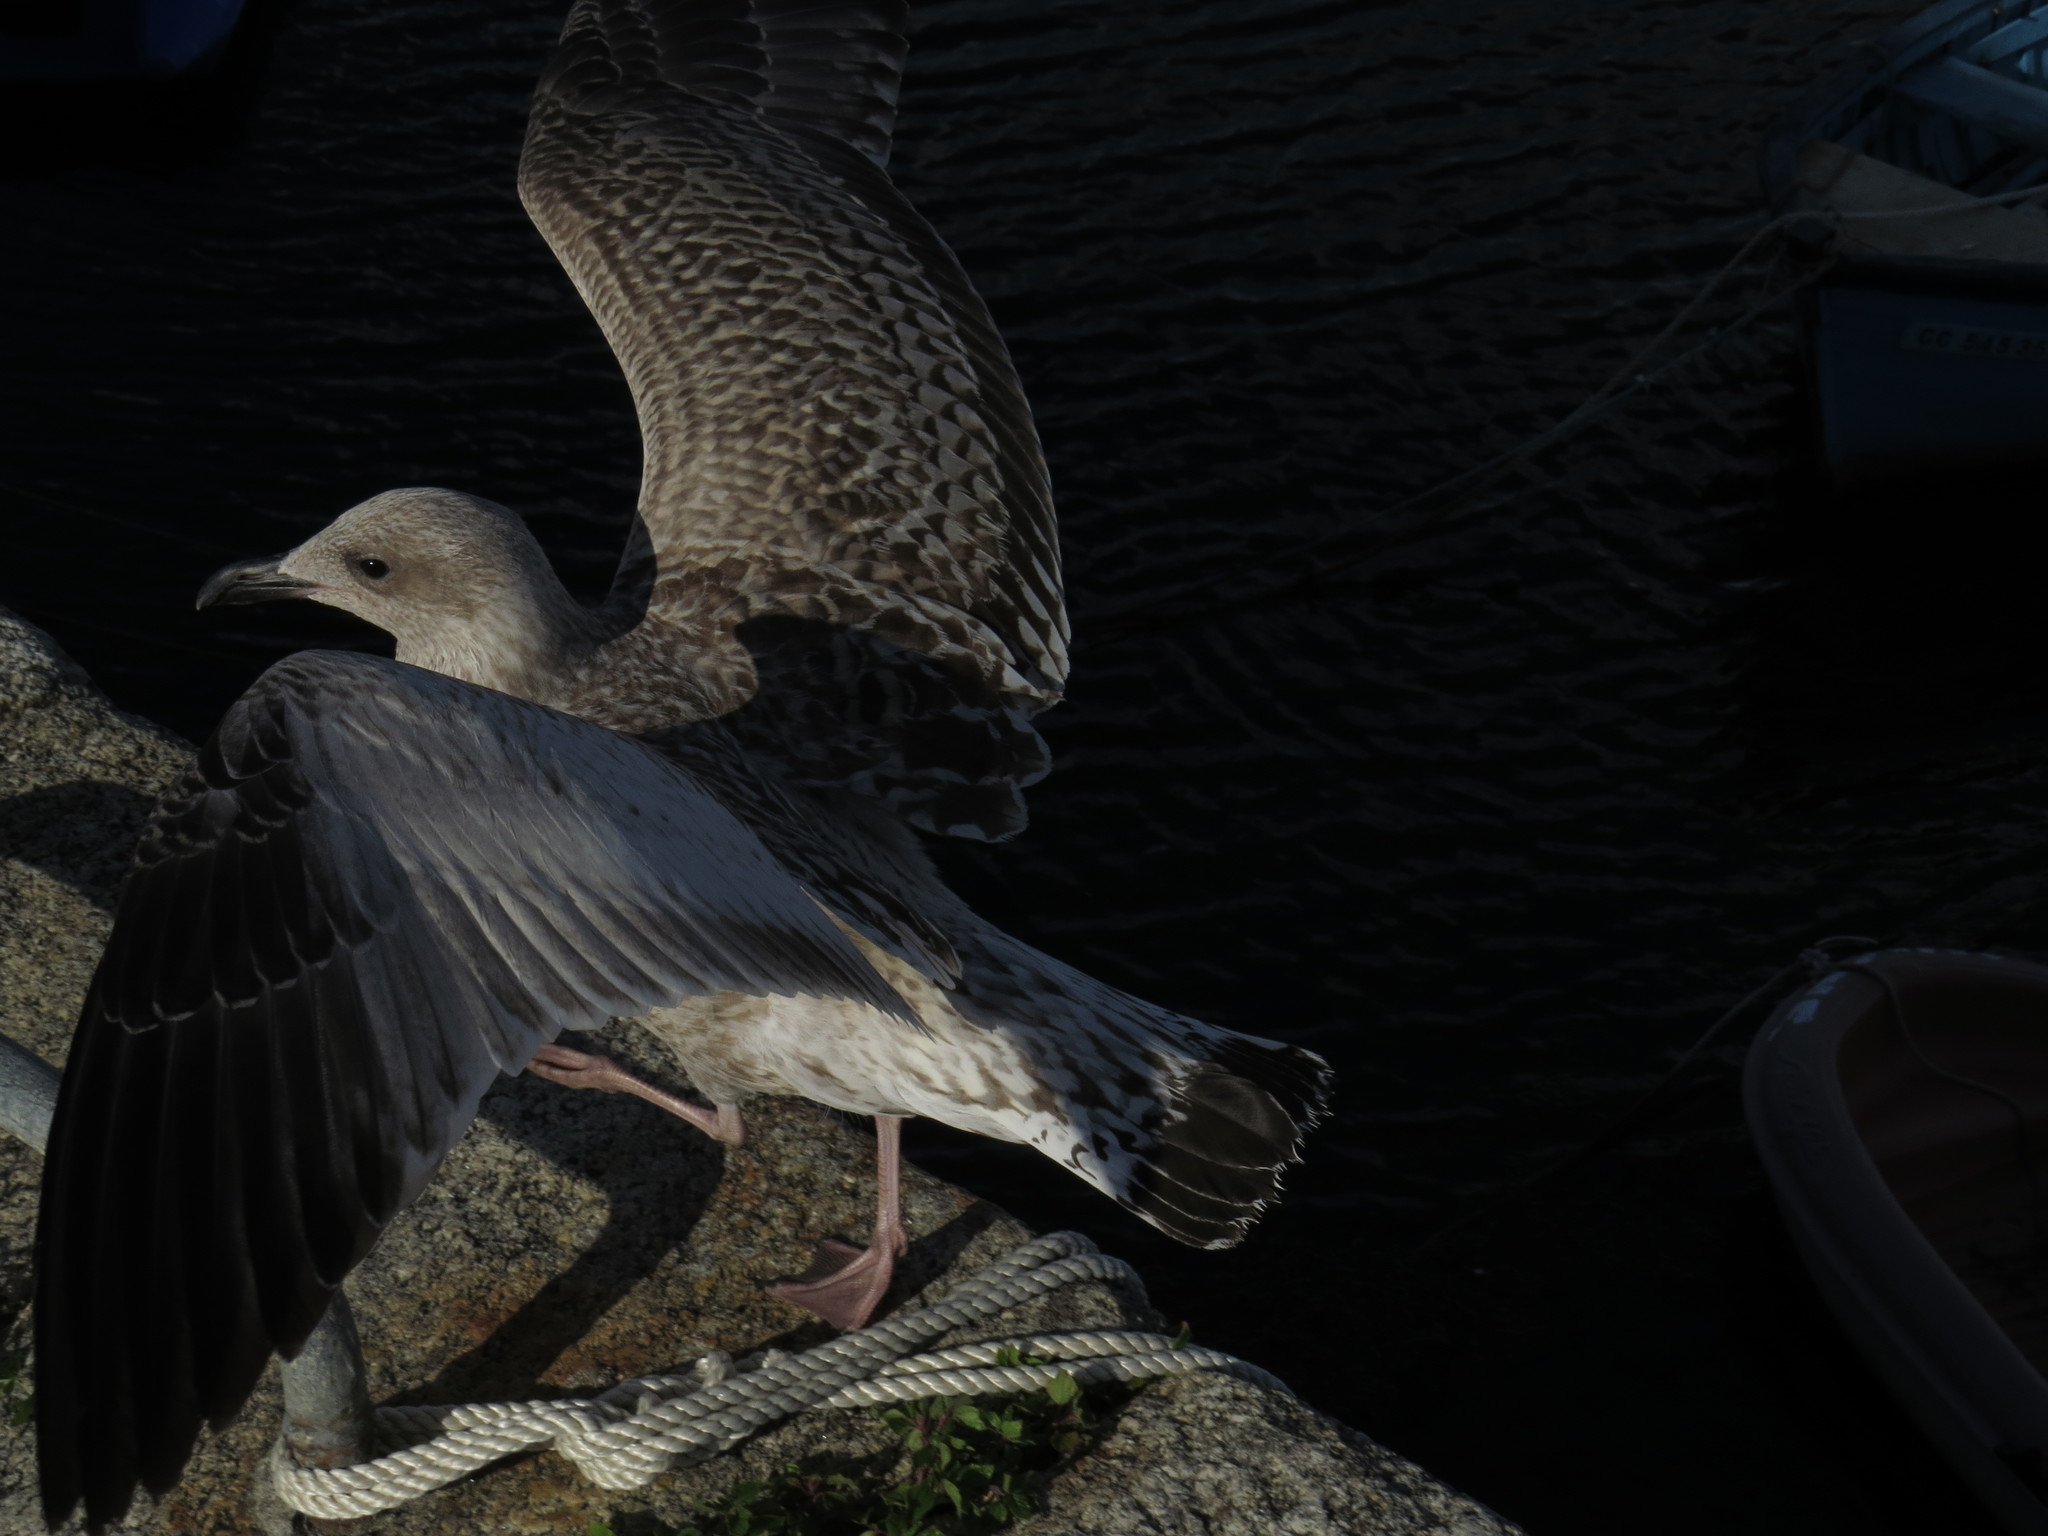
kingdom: Animalia
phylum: Chordata
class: Aves
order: Charadriiformes
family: Laridae
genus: Larus
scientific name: Larus argentatus
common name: Herring gull
